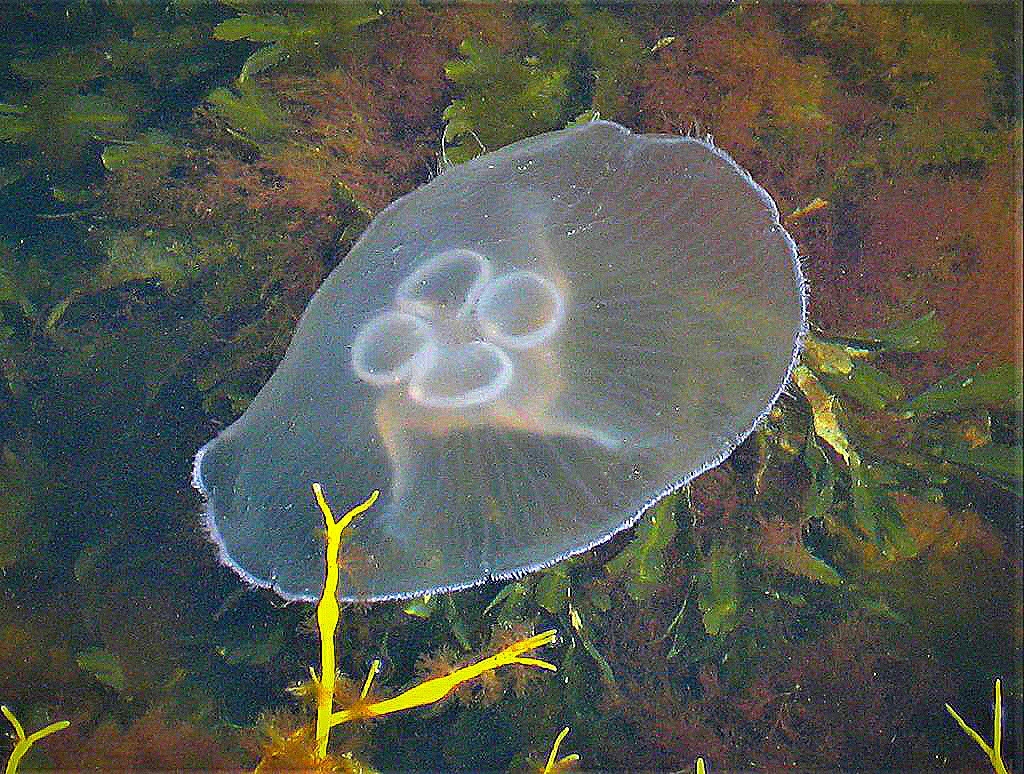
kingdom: Animalia
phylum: Cnidaria
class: Scyphozoa
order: Semaeostomeae
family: Ulmaridae
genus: Aurelia
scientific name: Aurelia aurita
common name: Moon jellyfish
